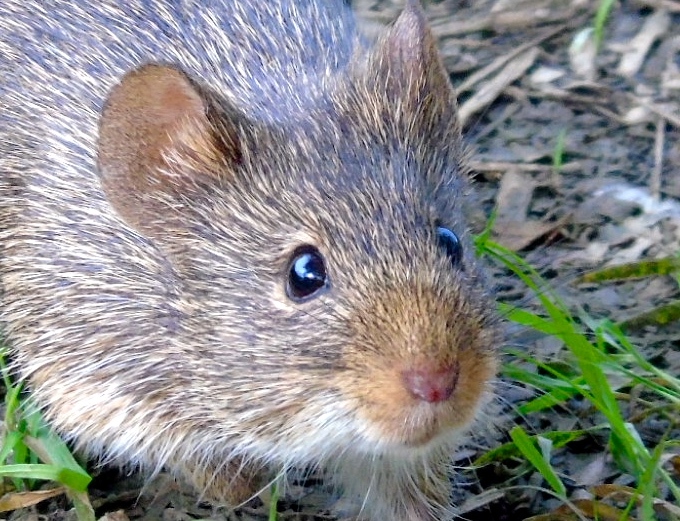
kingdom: Animalia
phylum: Chordata
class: Mammalia
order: Rodentia
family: Cricetidae
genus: Sigmodon
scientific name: Sigmodon arizonae
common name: Arizona cotton rat
